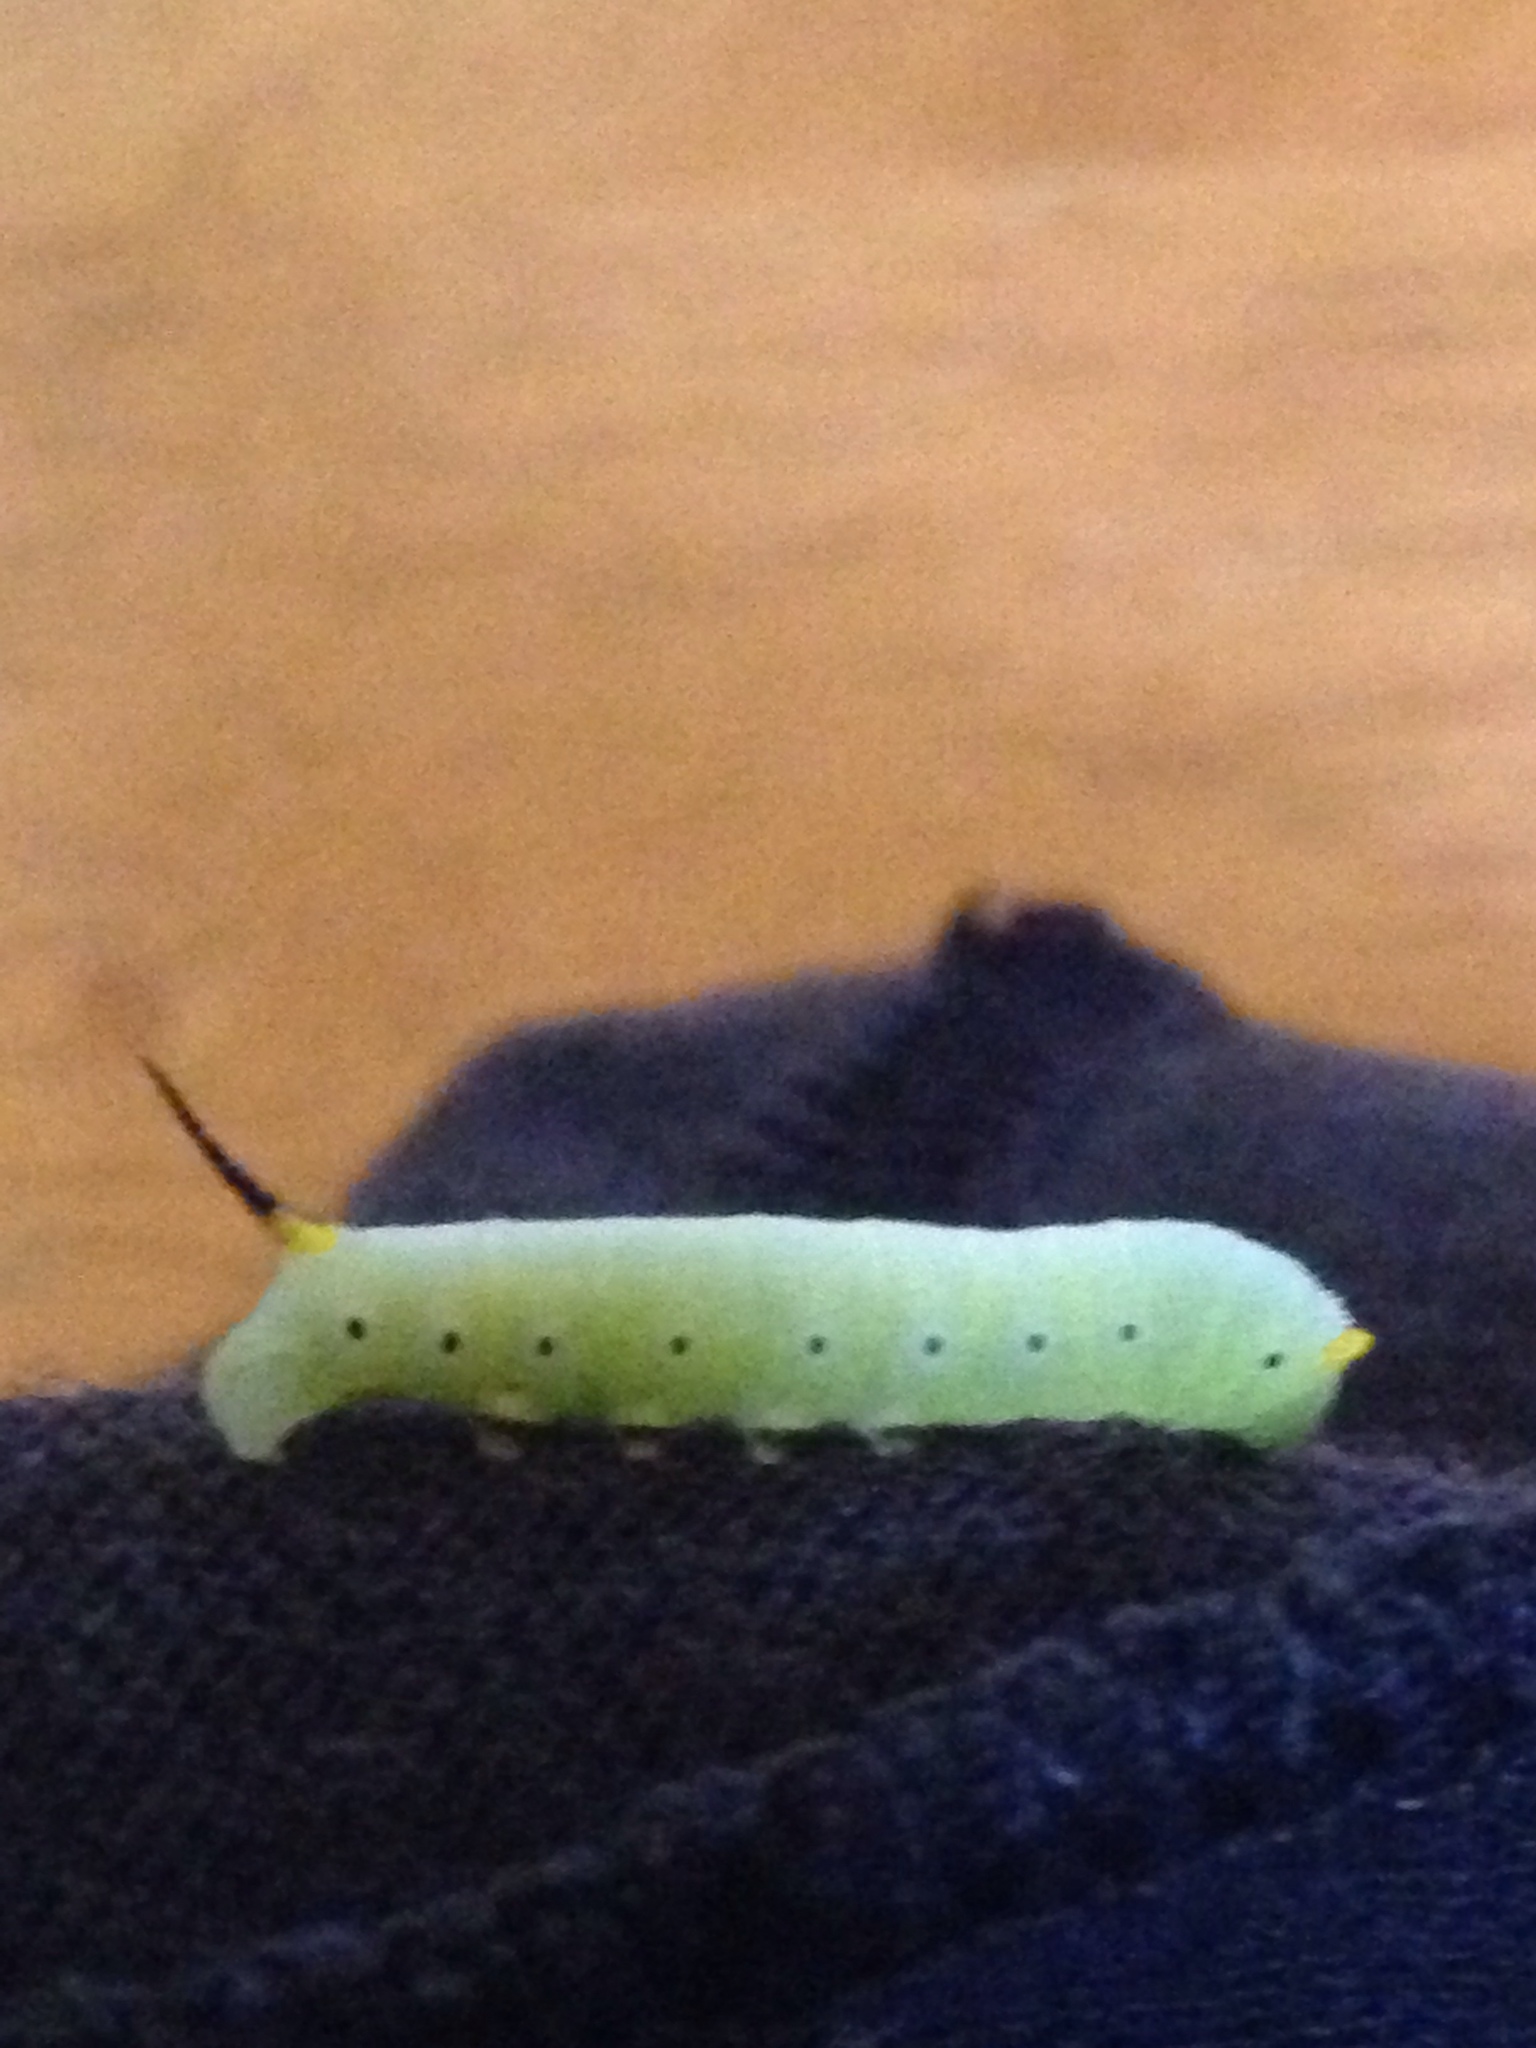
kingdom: Animalia
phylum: Arthropoda
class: Insecta
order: Lepidoptera
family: Sphingidae
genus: Hemaris
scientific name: Hemaris diffinis
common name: Bumblebee moth
